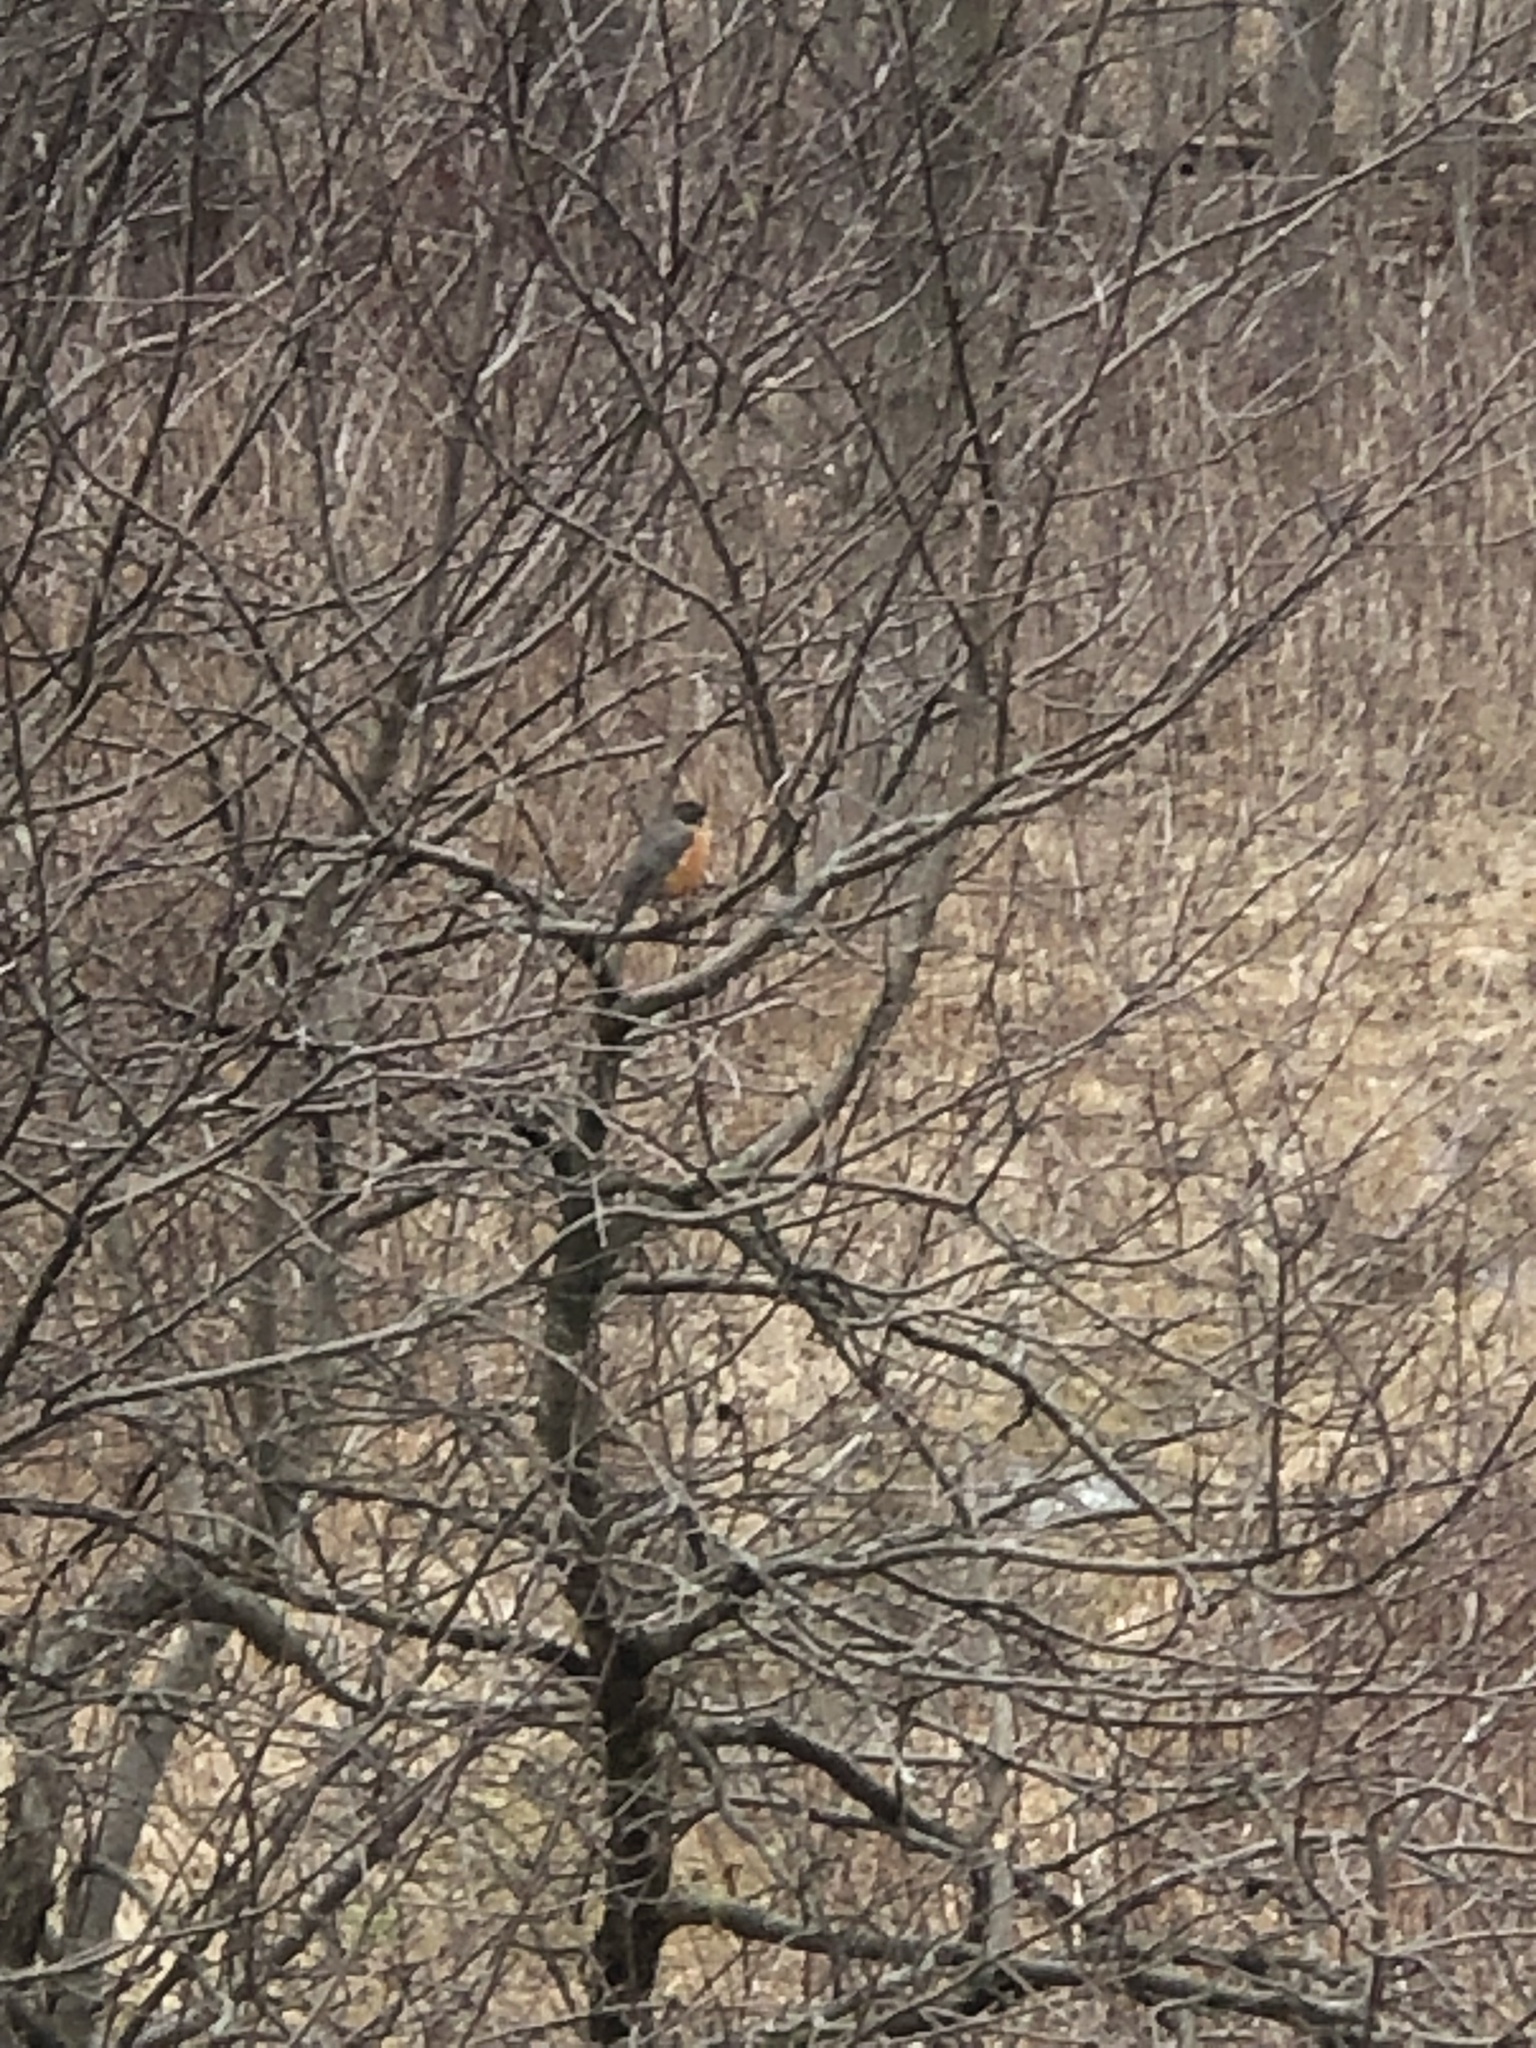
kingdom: Animalia
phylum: Chordata
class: Aves
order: Passeriformes
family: Turdidae
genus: Turdus
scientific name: Turdus migratorius
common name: American robin
